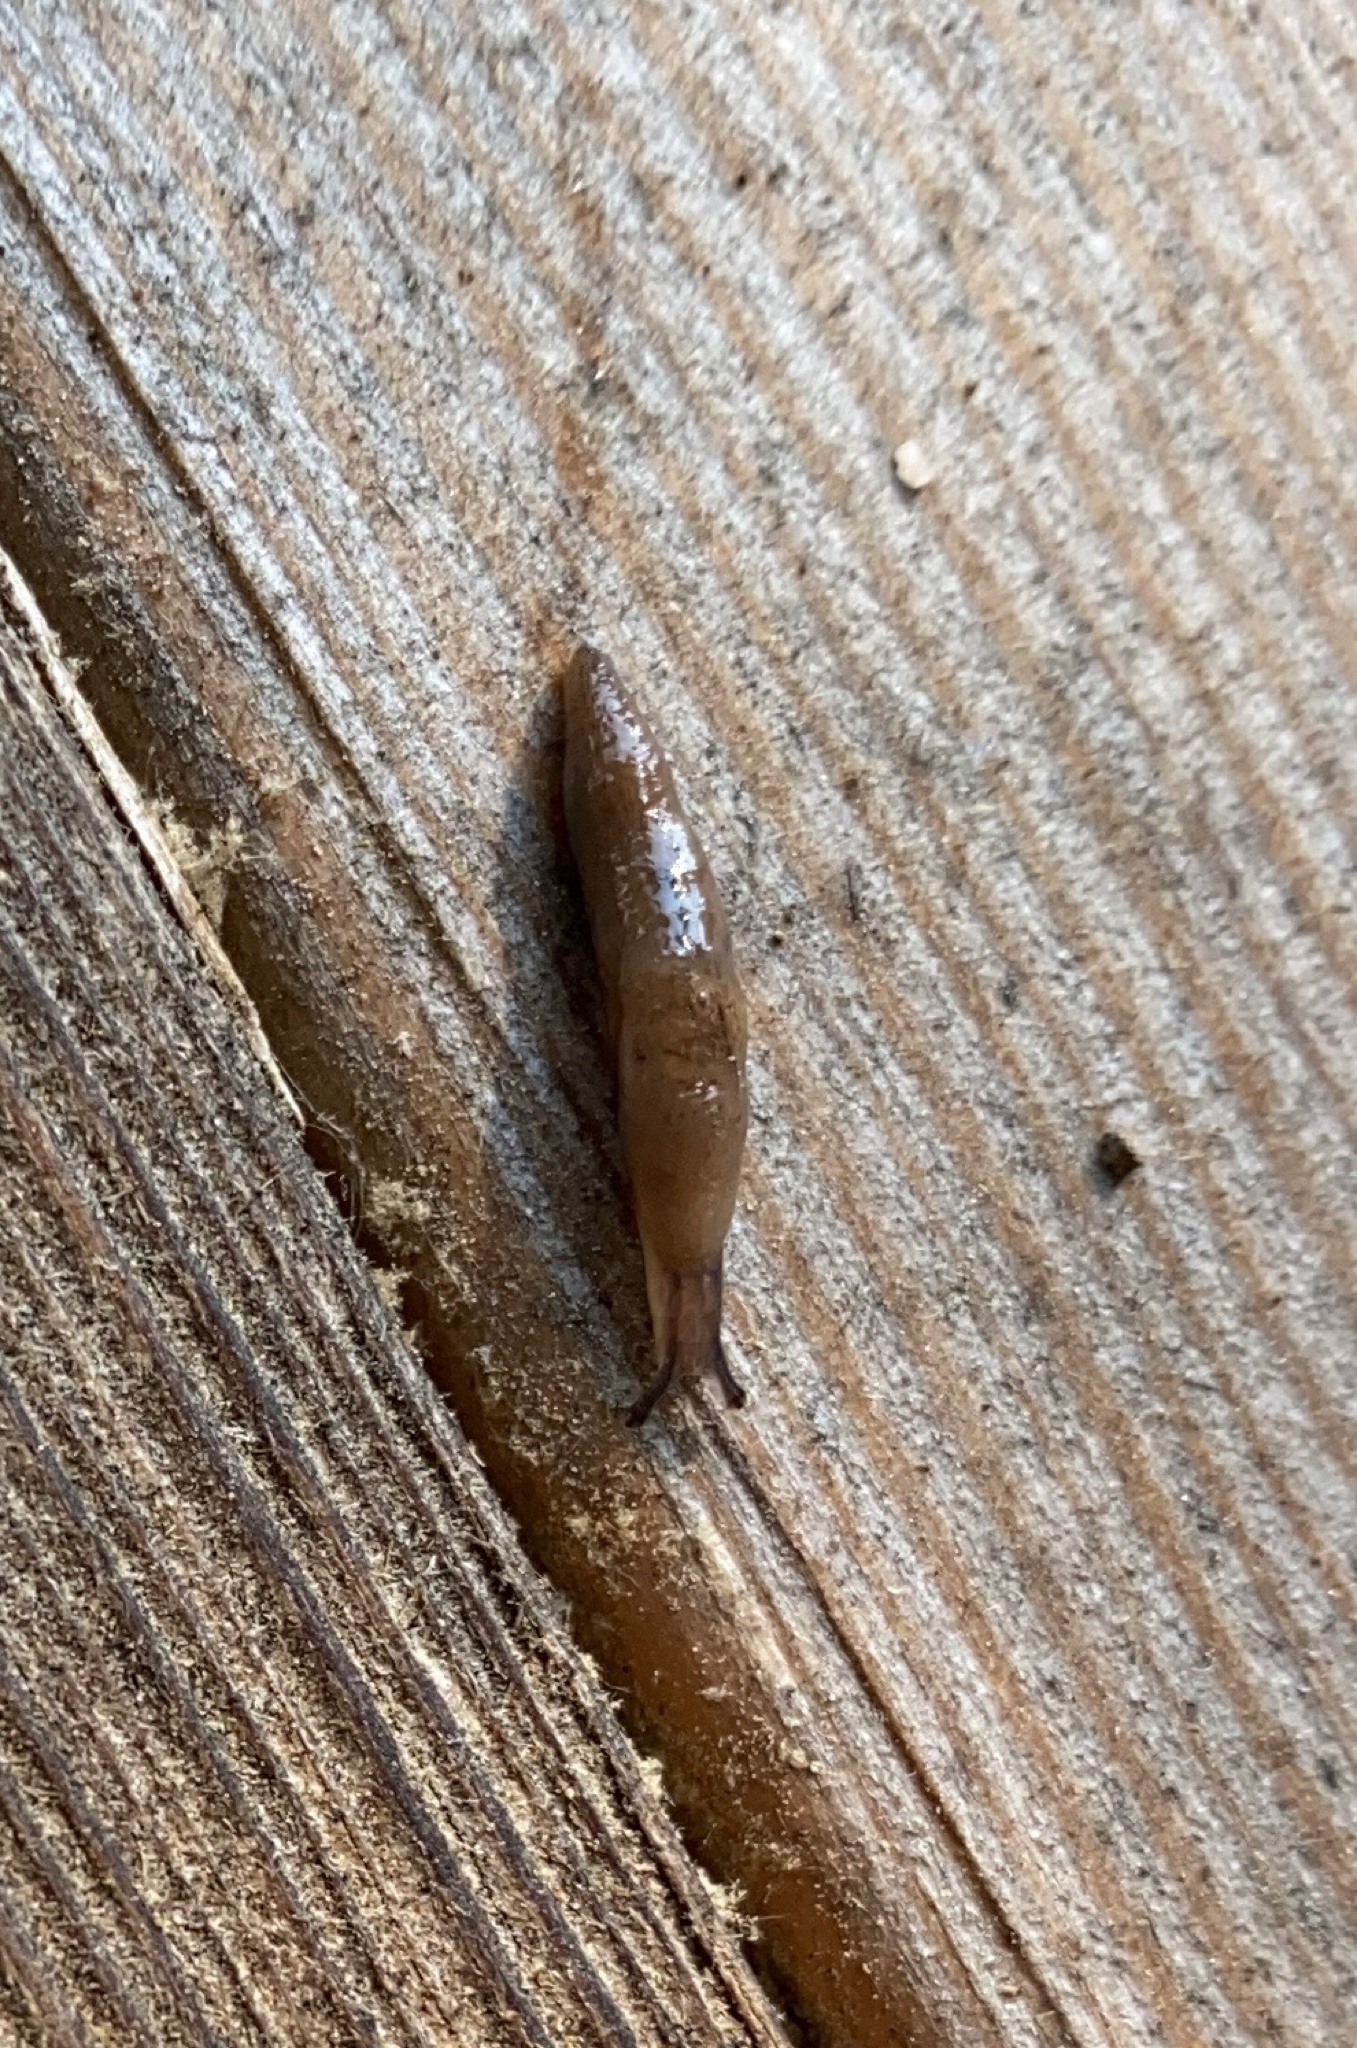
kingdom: Animalia
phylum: Mollusca
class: Gastropoda
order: Stylommatophora
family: Agriolimacidae
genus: Deroceras
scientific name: Deroceras laeve
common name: Marsh slug
